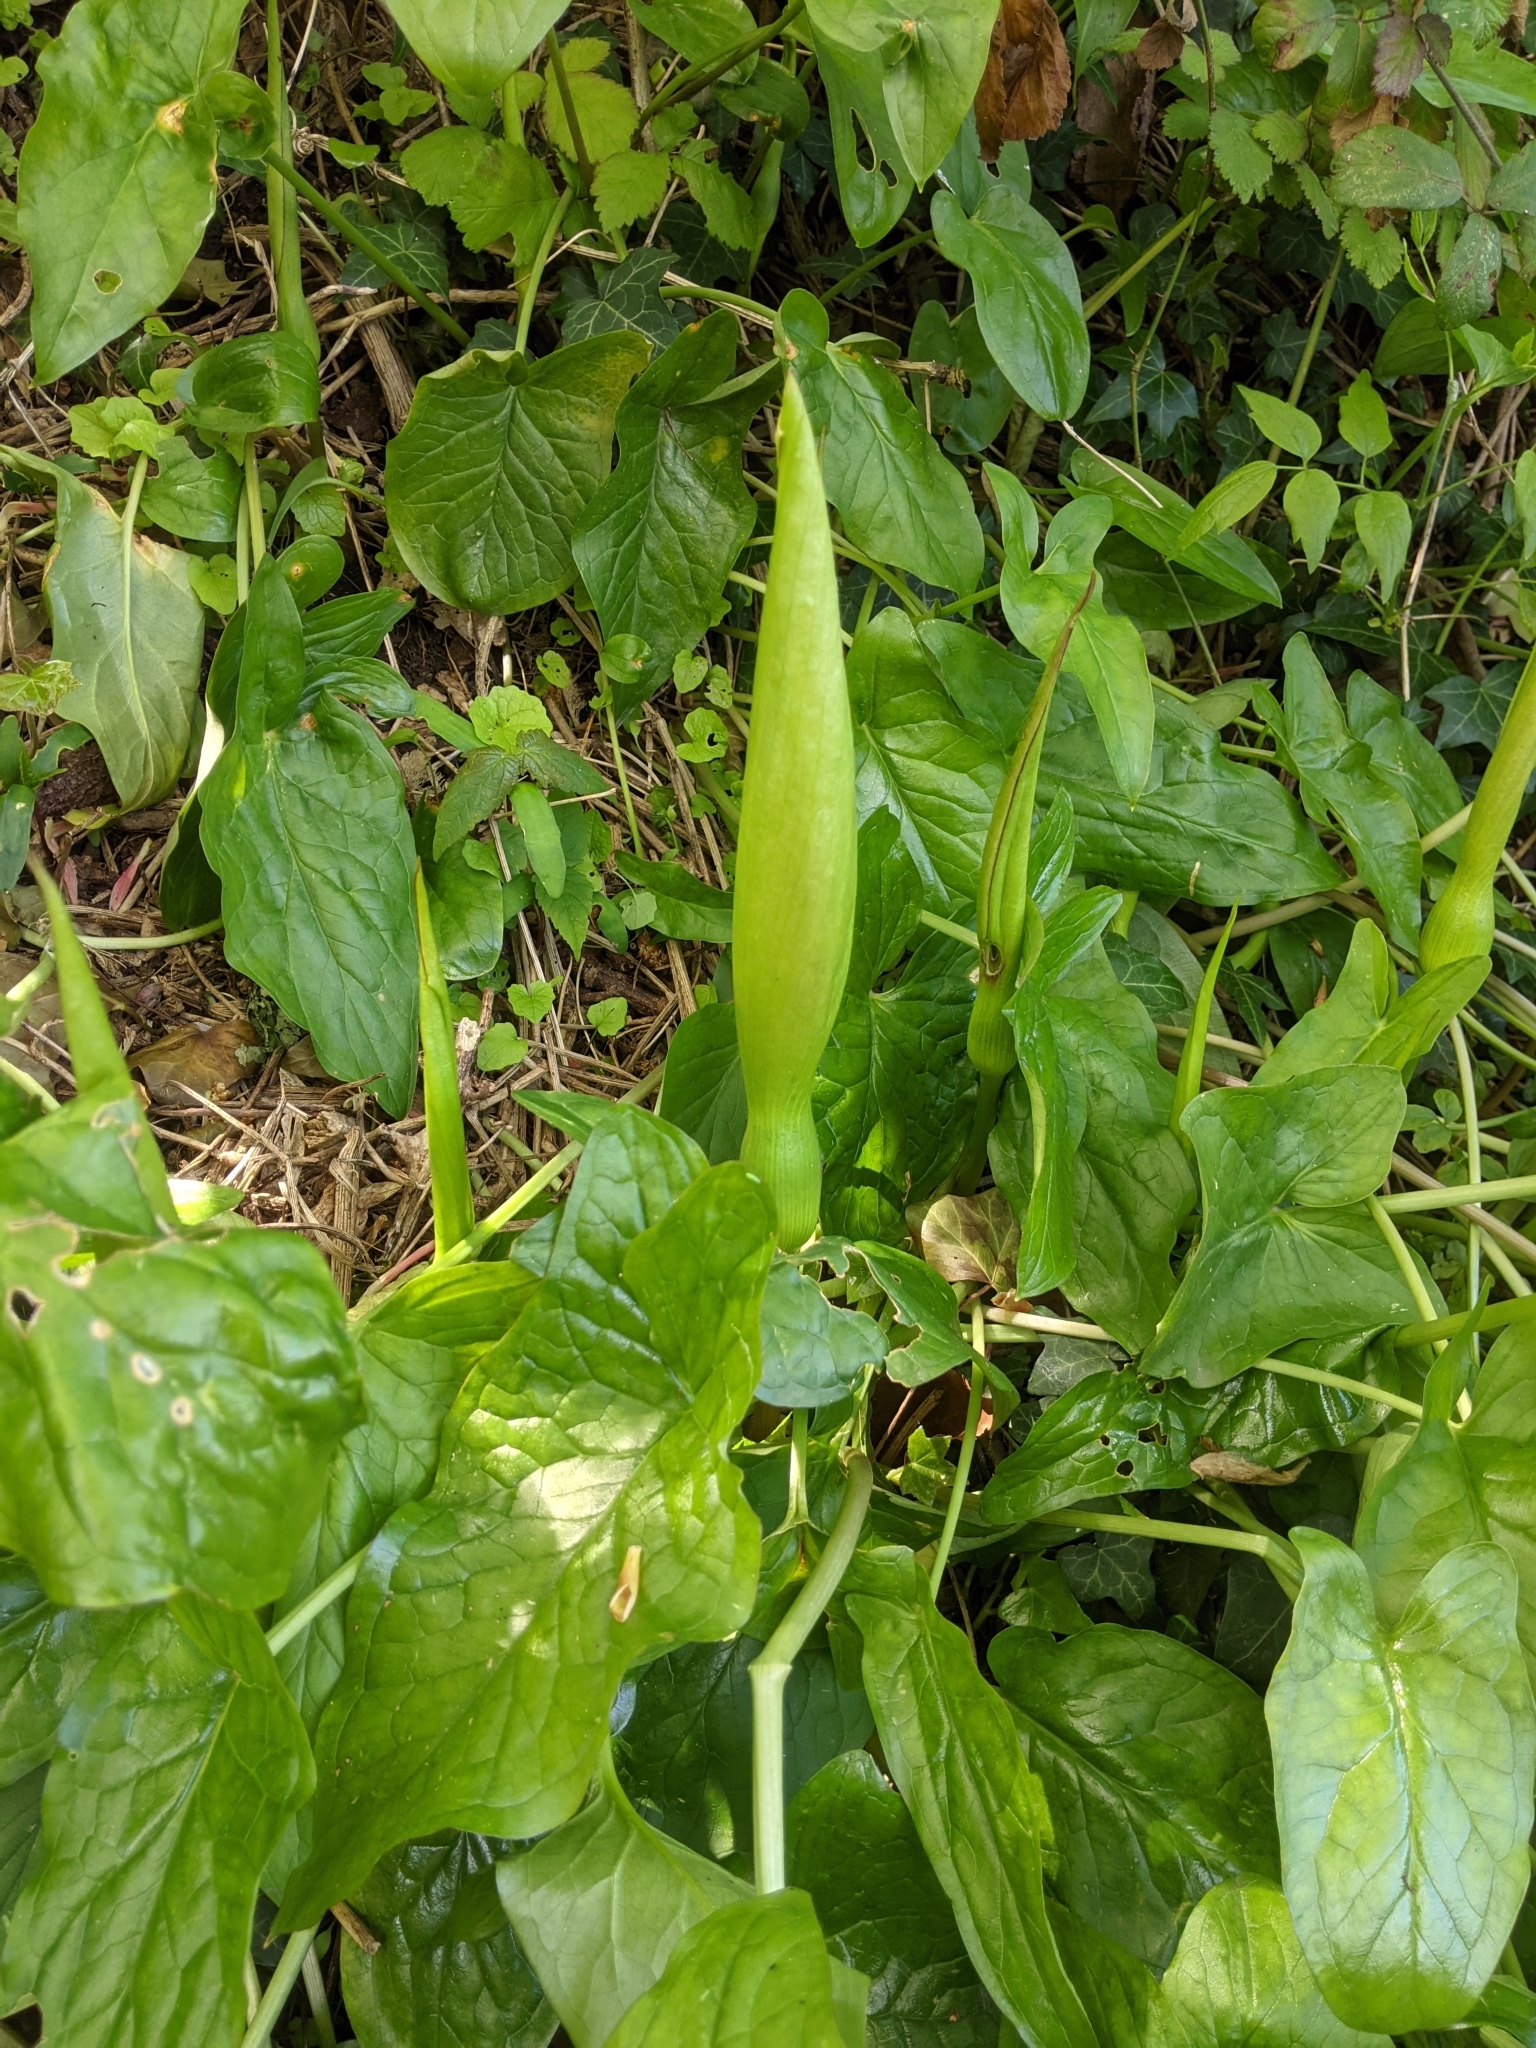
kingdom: Plantae
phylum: Tracheophyta
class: Liliopsida
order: Alismatales
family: Araceae
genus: Arum
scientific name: Arum maculatum
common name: Lords-and-ladies
